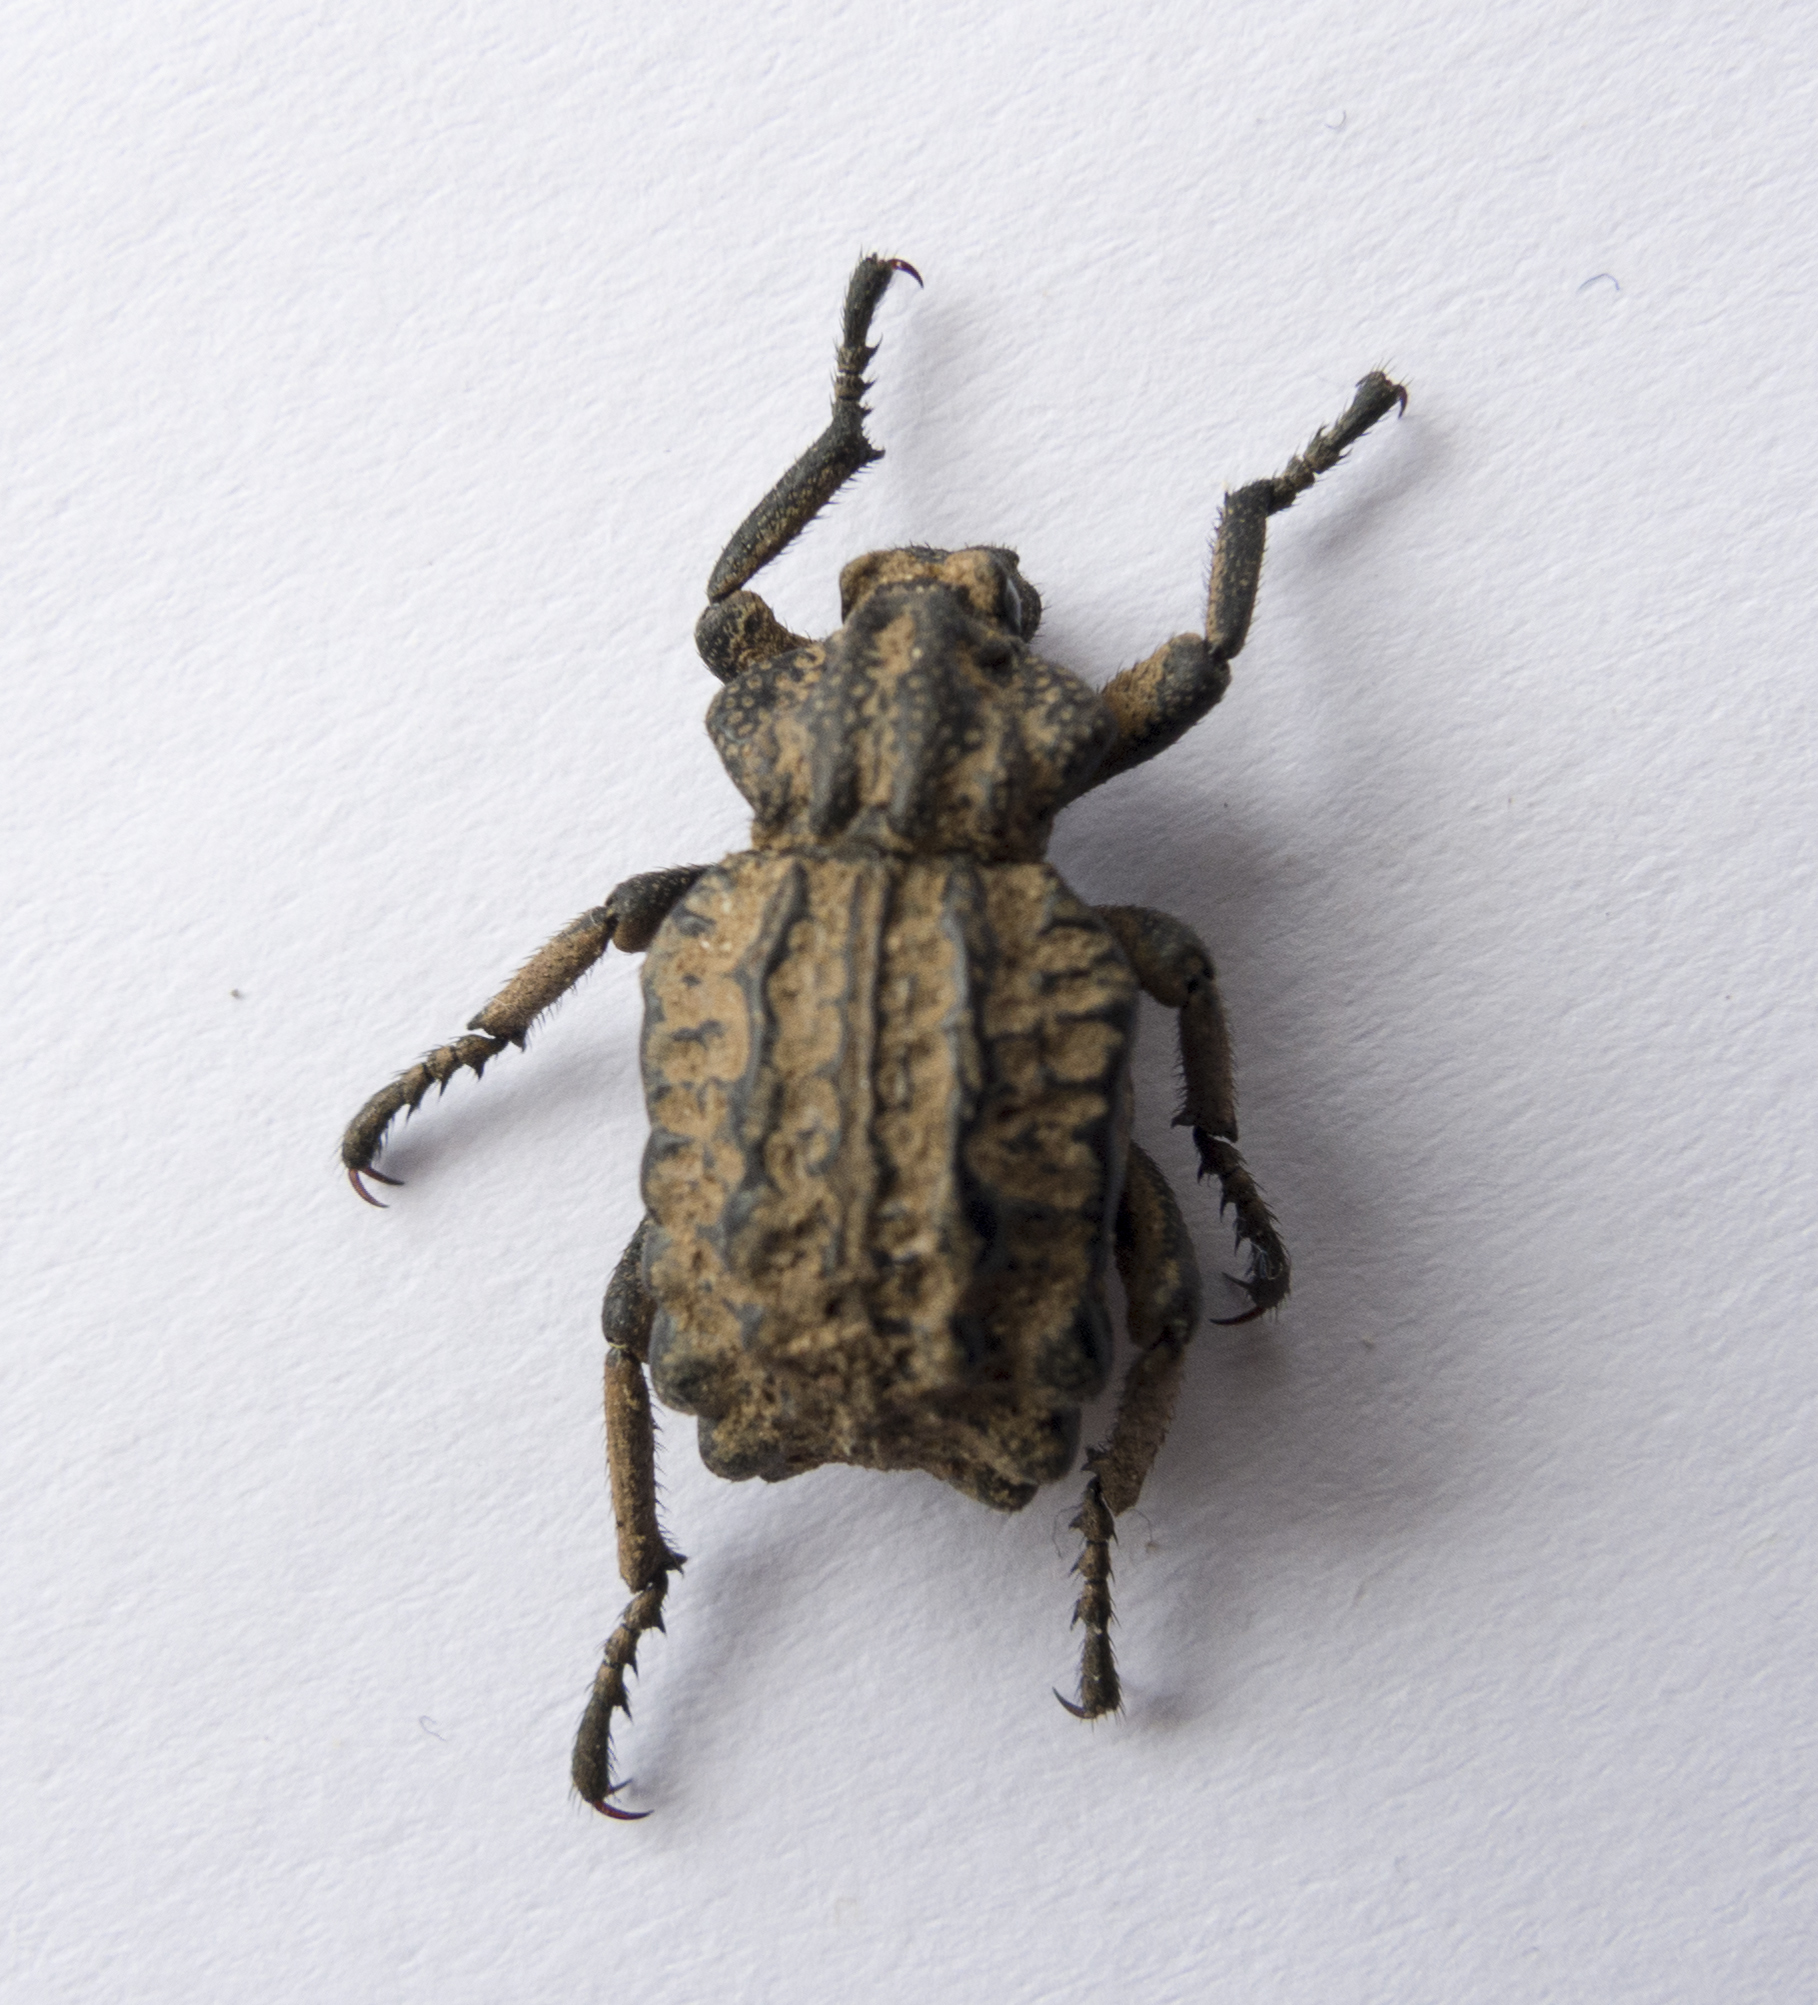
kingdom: Animalia
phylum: Arthropoda
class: Insecta
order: Coleoptera
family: Brachyceridae
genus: Brachycerus
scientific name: Brachycerus undatus
